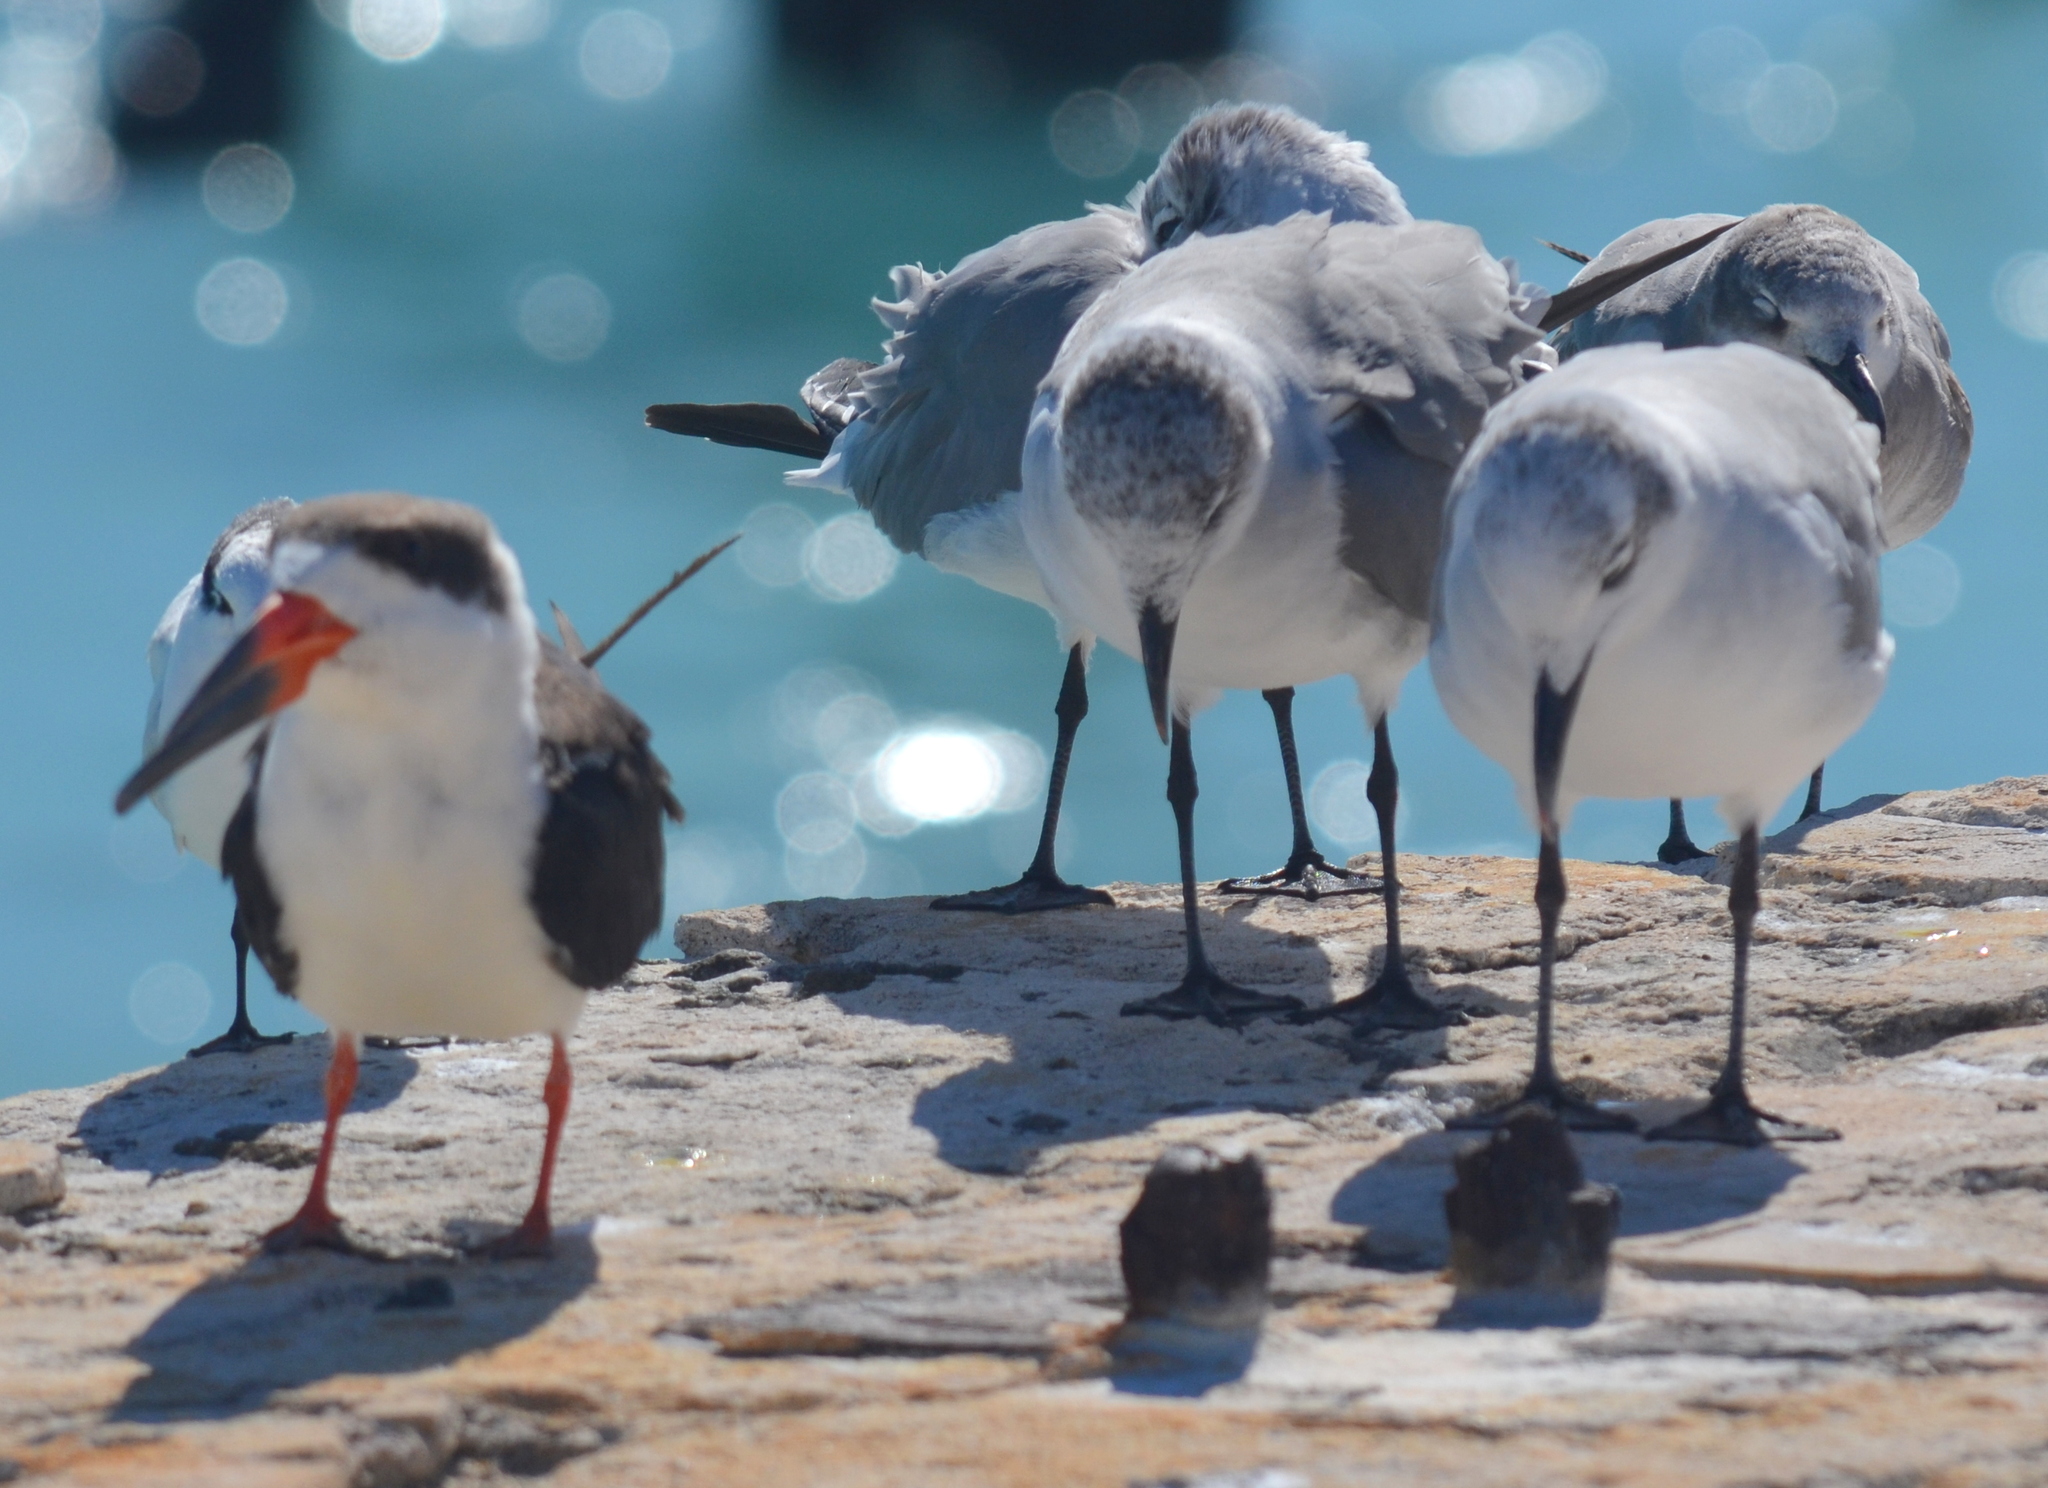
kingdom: Animalia
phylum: Chordata
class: Aves
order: Charadriiformes
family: Laridae
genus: Rynchops
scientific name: Rynchops niger
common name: Black skimmer
